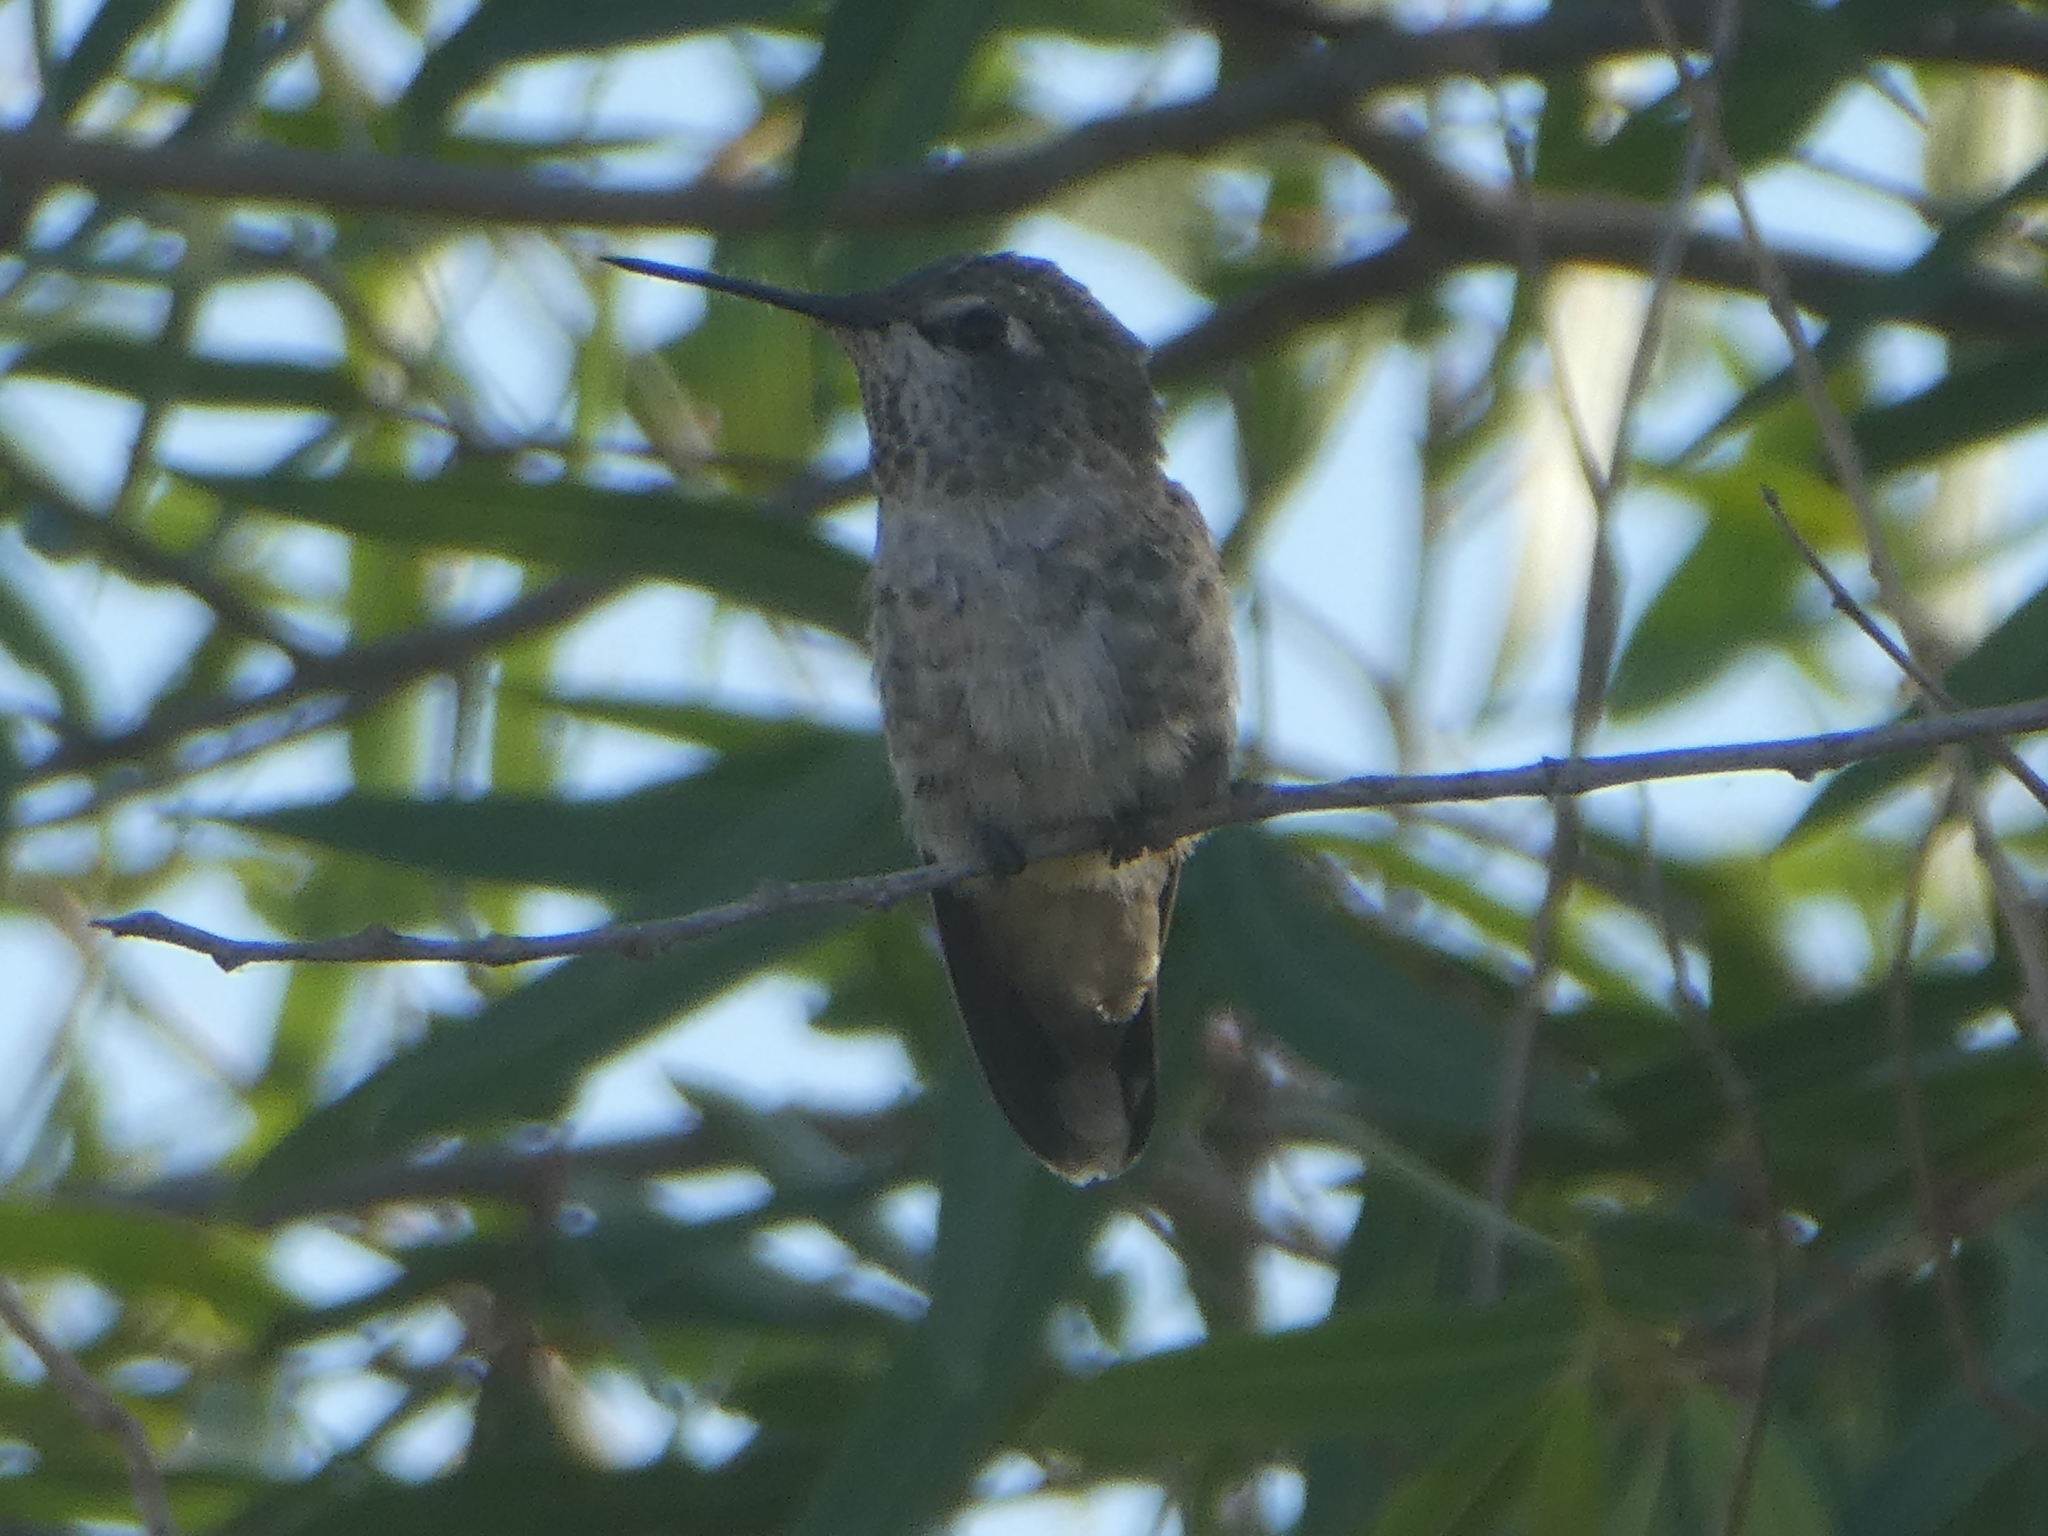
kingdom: Animalia
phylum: Chordata
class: Aves
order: Apodiformes
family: Trochilidae
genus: Calypte
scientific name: Calypte anna
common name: Anna's hummingbird
